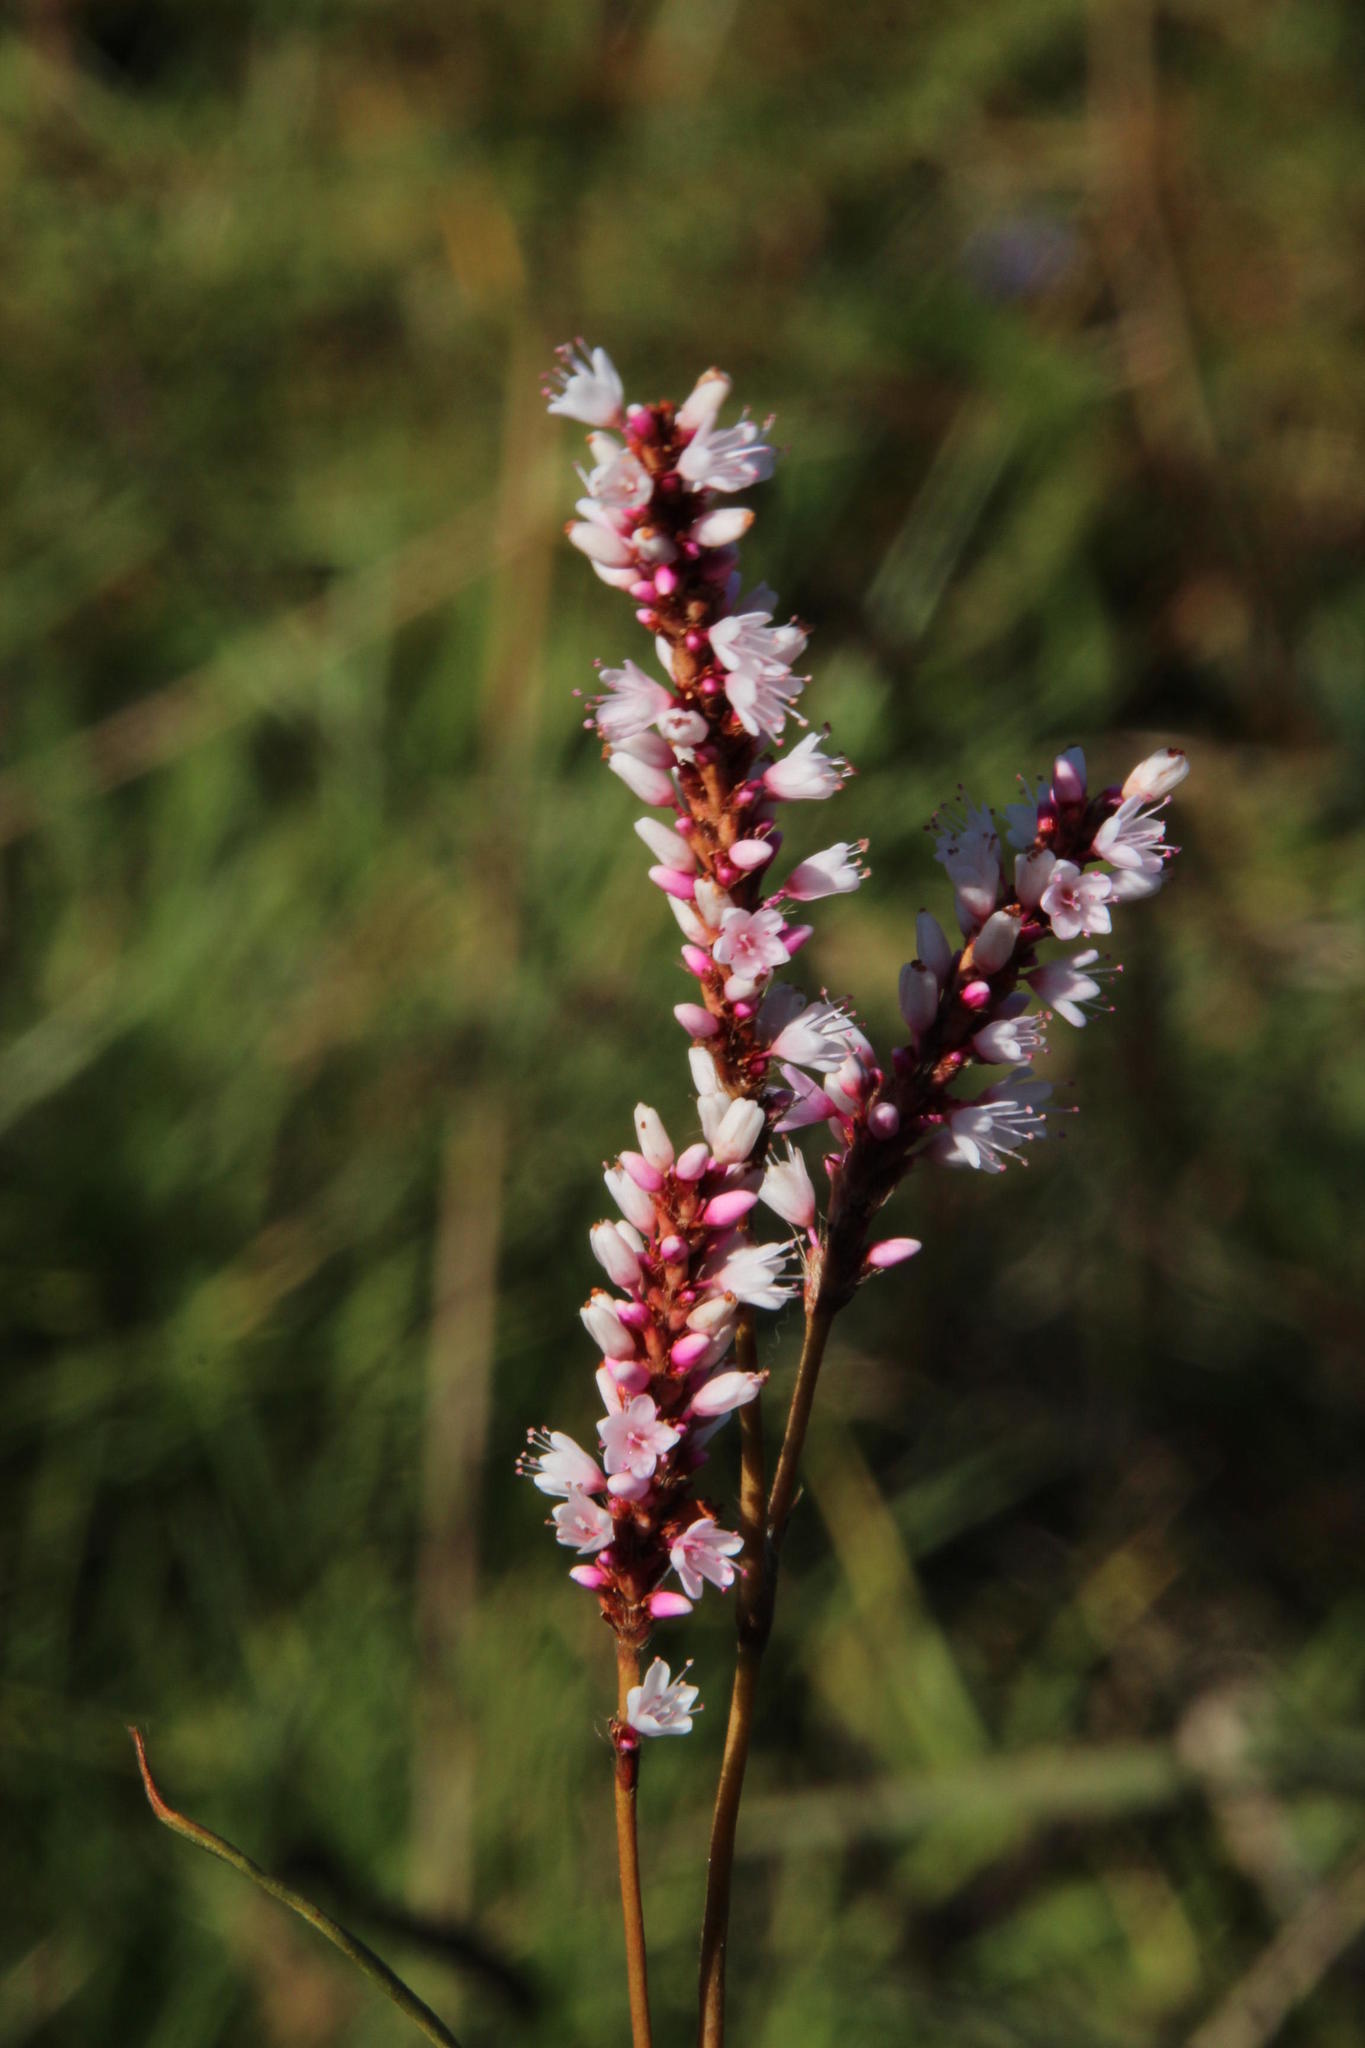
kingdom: Plantae
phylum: Tracheophyta
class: Magnoliopsida
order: Caryophyllales
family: Polygonaceae
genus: Persicaria
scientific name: Persicaria madagascariensis
